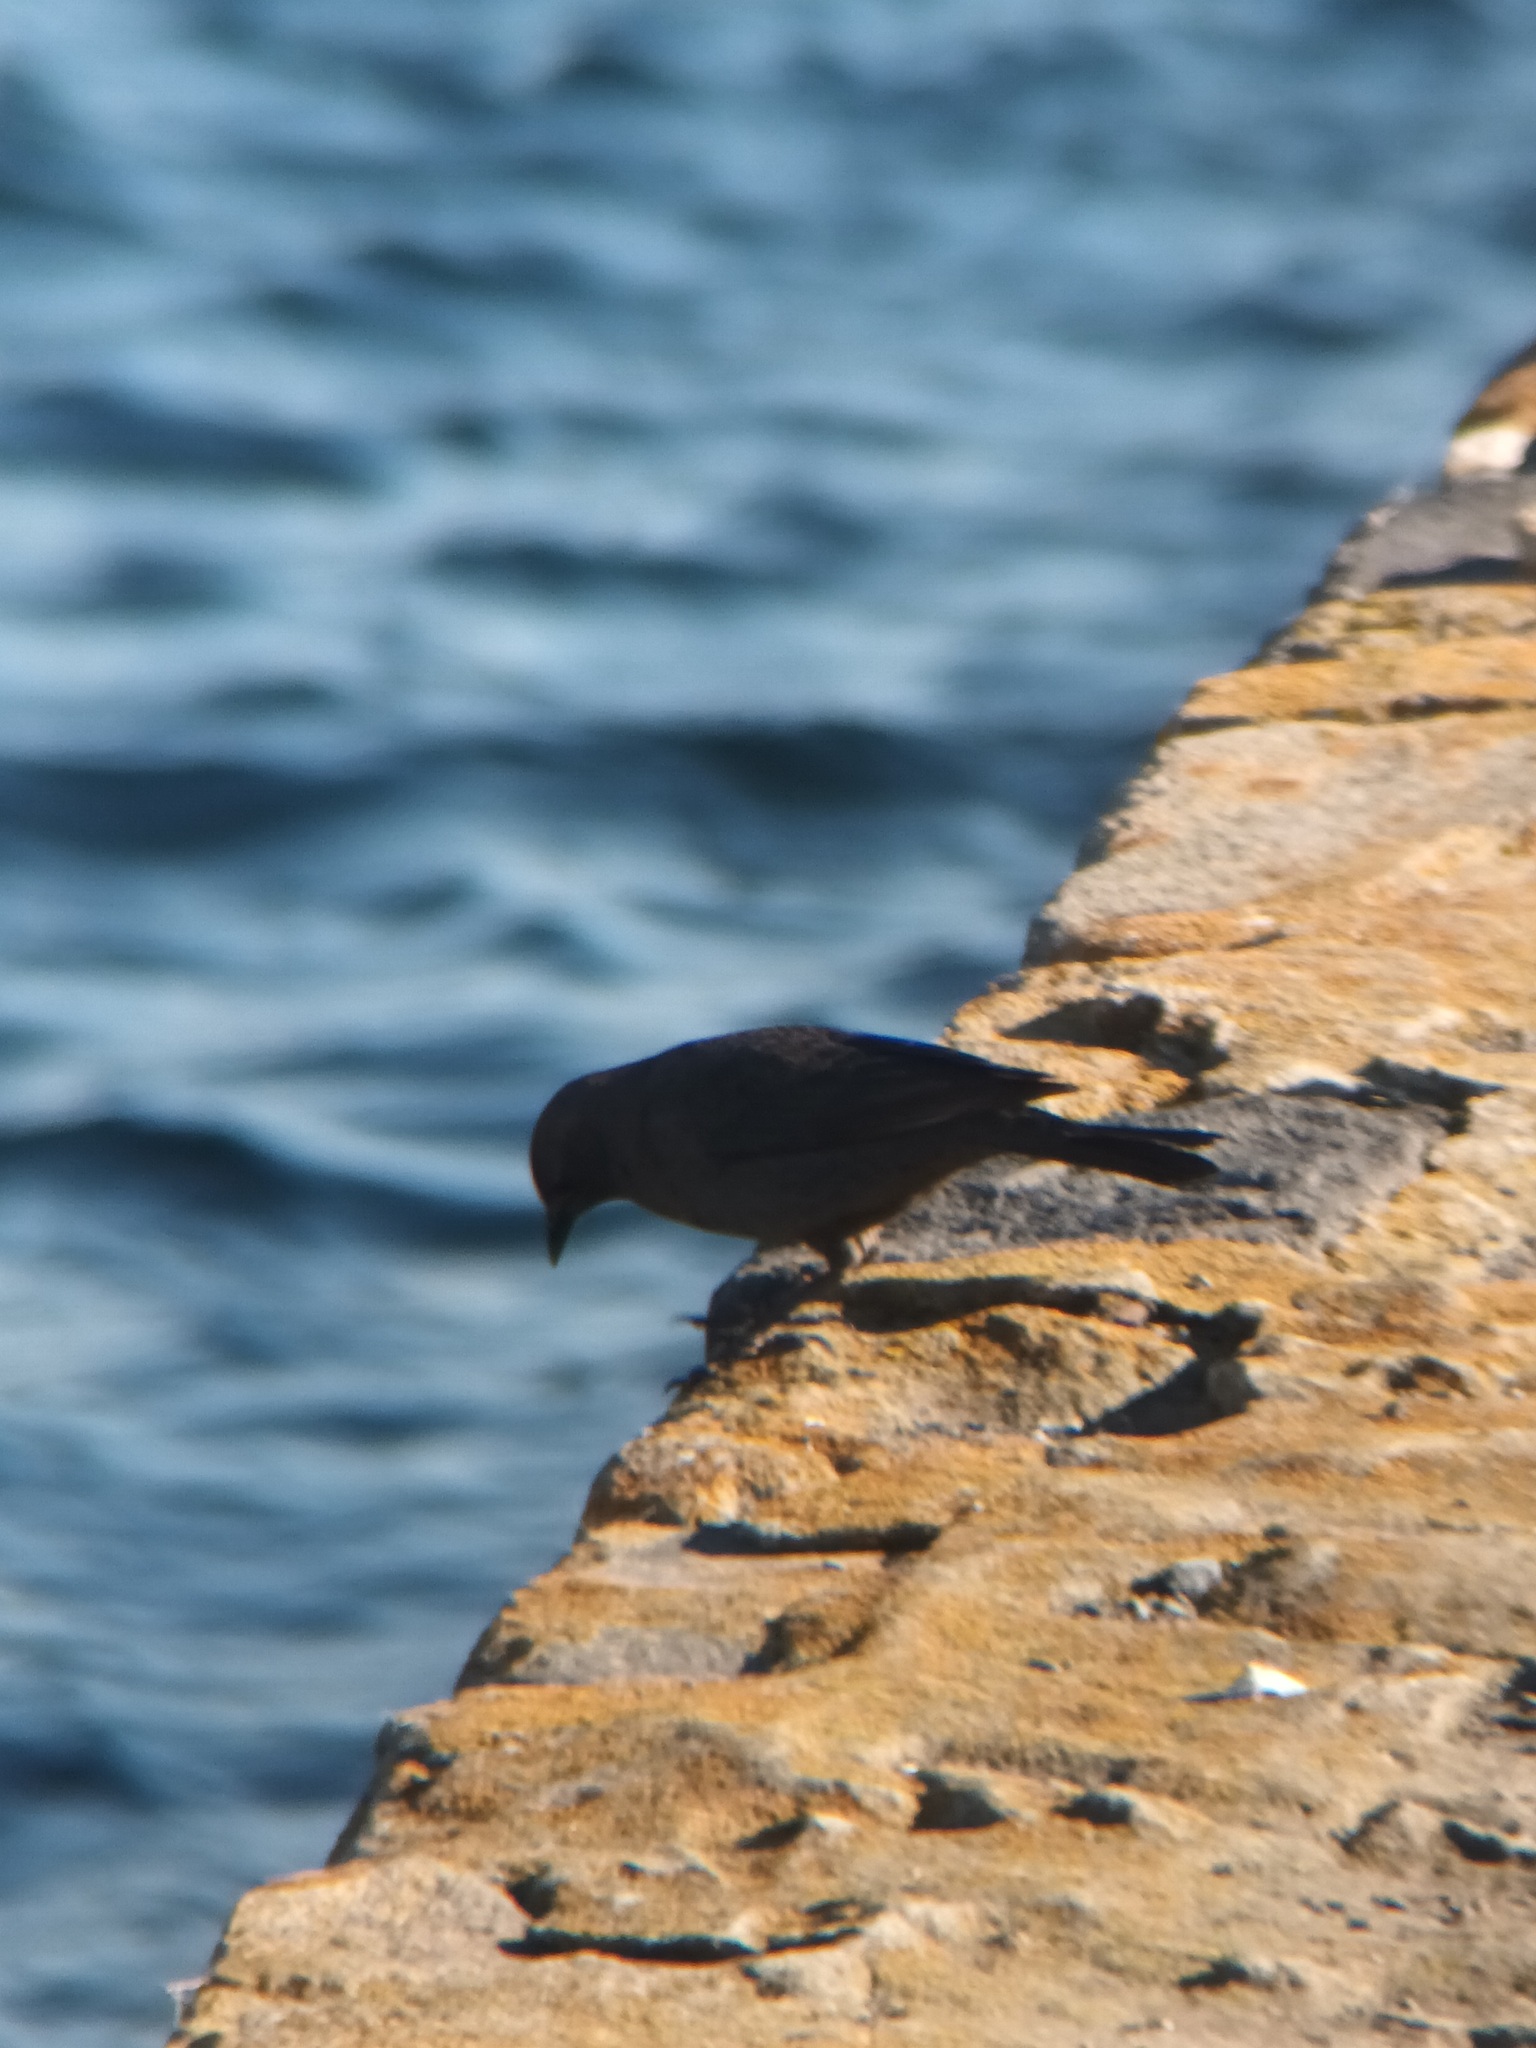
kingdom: Animalia
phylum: Chordata
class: Aves
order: Passeriformes
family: Icteridae
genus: Euphagus
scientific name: Euphagus cyanocephalus
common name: Brewer's blackbird
